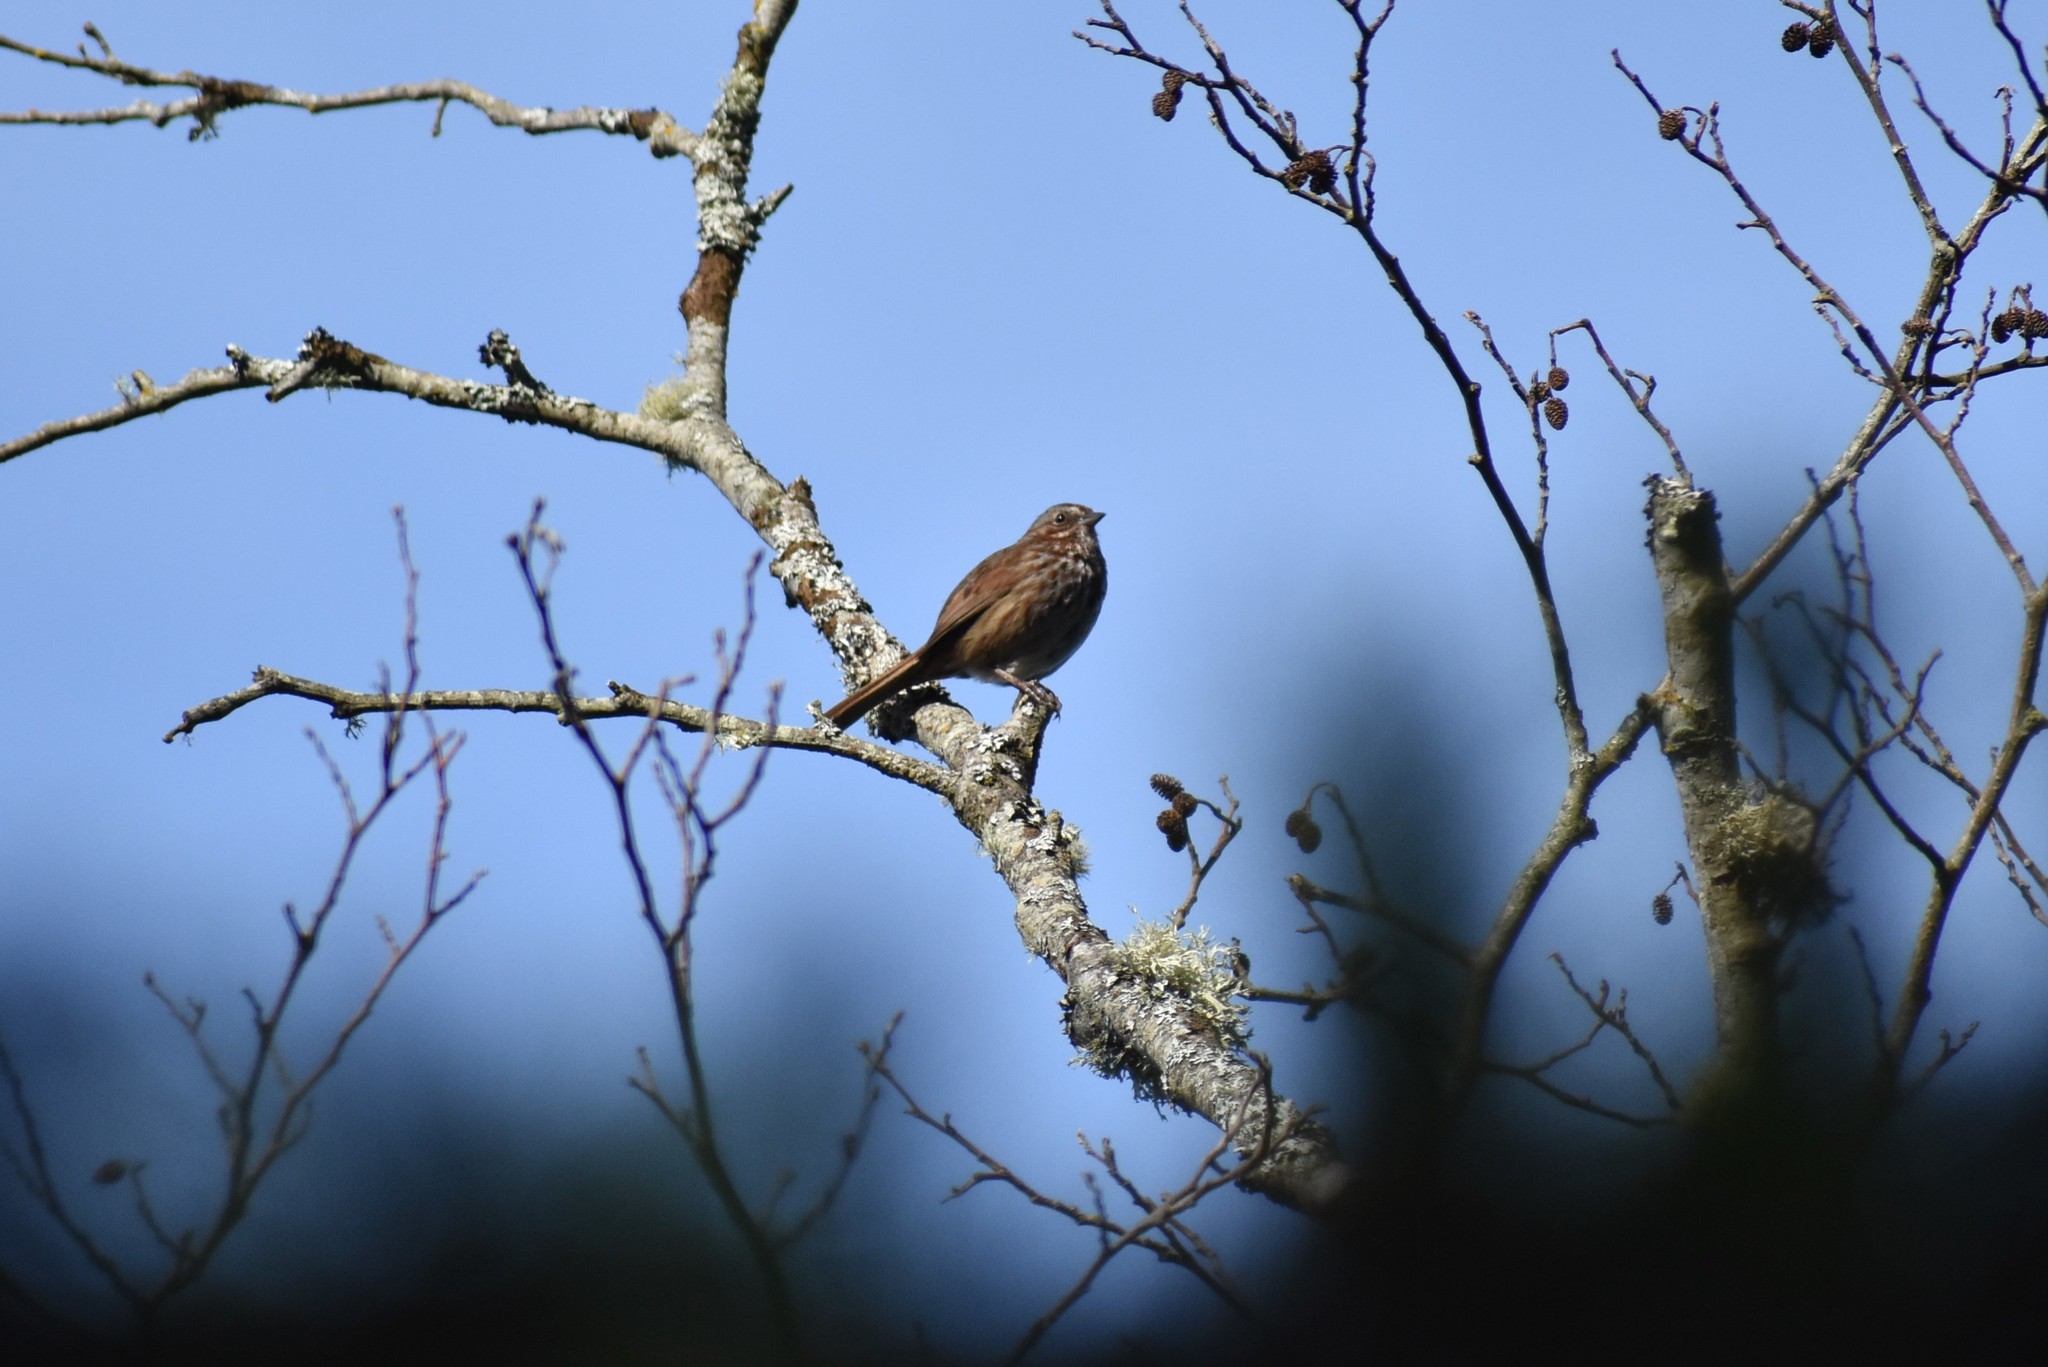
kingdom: Animalia
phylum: Chordata
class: Aves
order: Passeriformes
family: Passerellidae
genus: Melospiza
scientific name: Melospiza melodia
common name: Song sparrow
